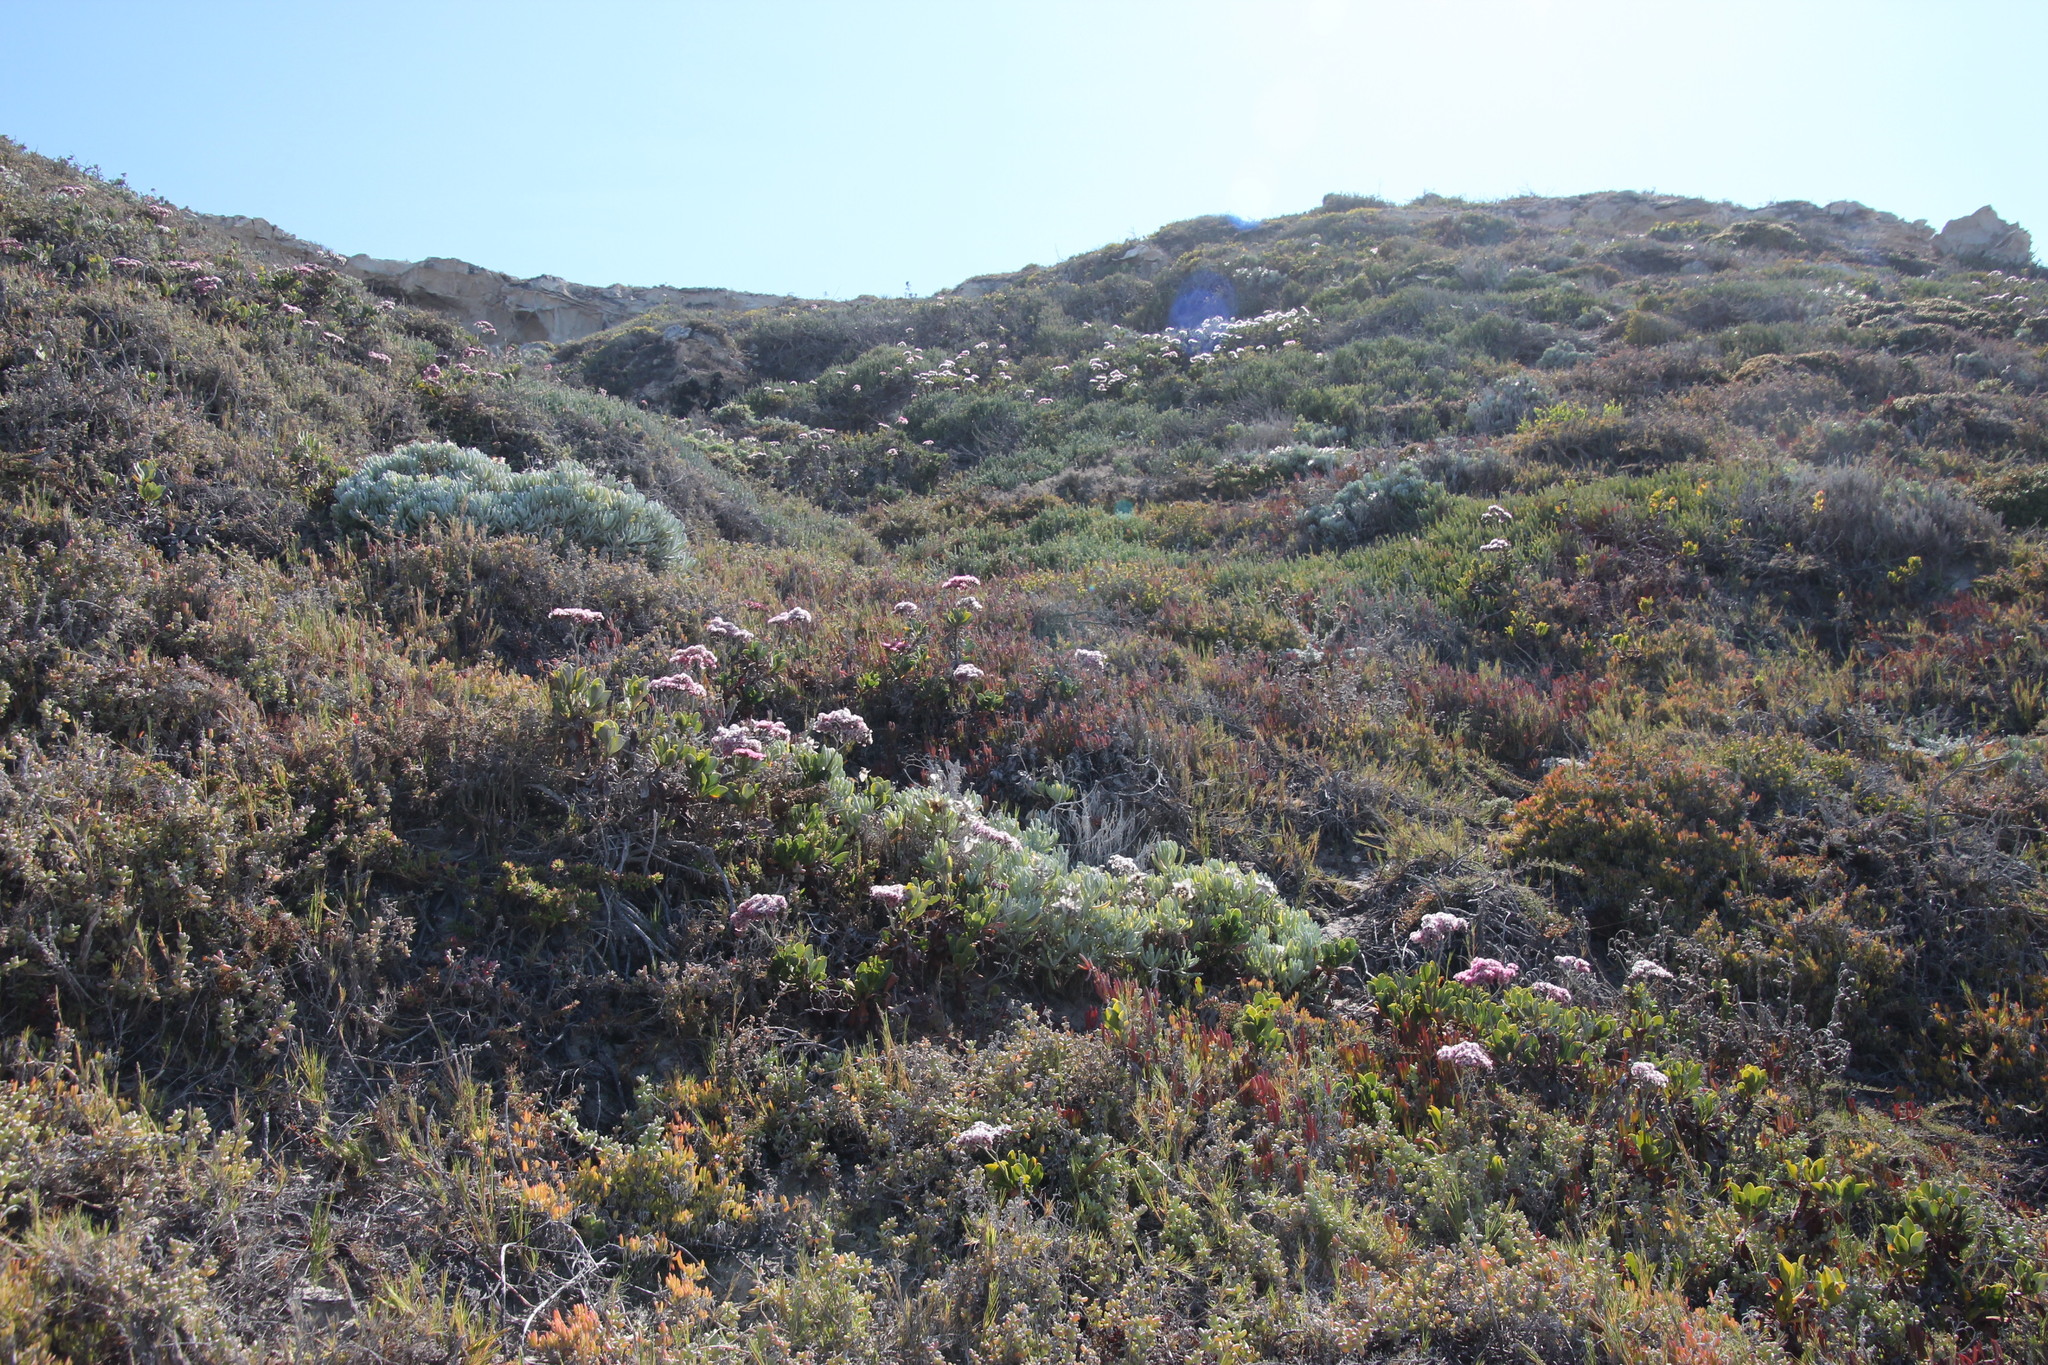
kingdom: Plantae
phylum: Tracheophyta
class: Magnoliopsida
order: Caryophyllales
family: Plumbaginaceae
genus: Limonium
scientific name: Limonium peregrinum
